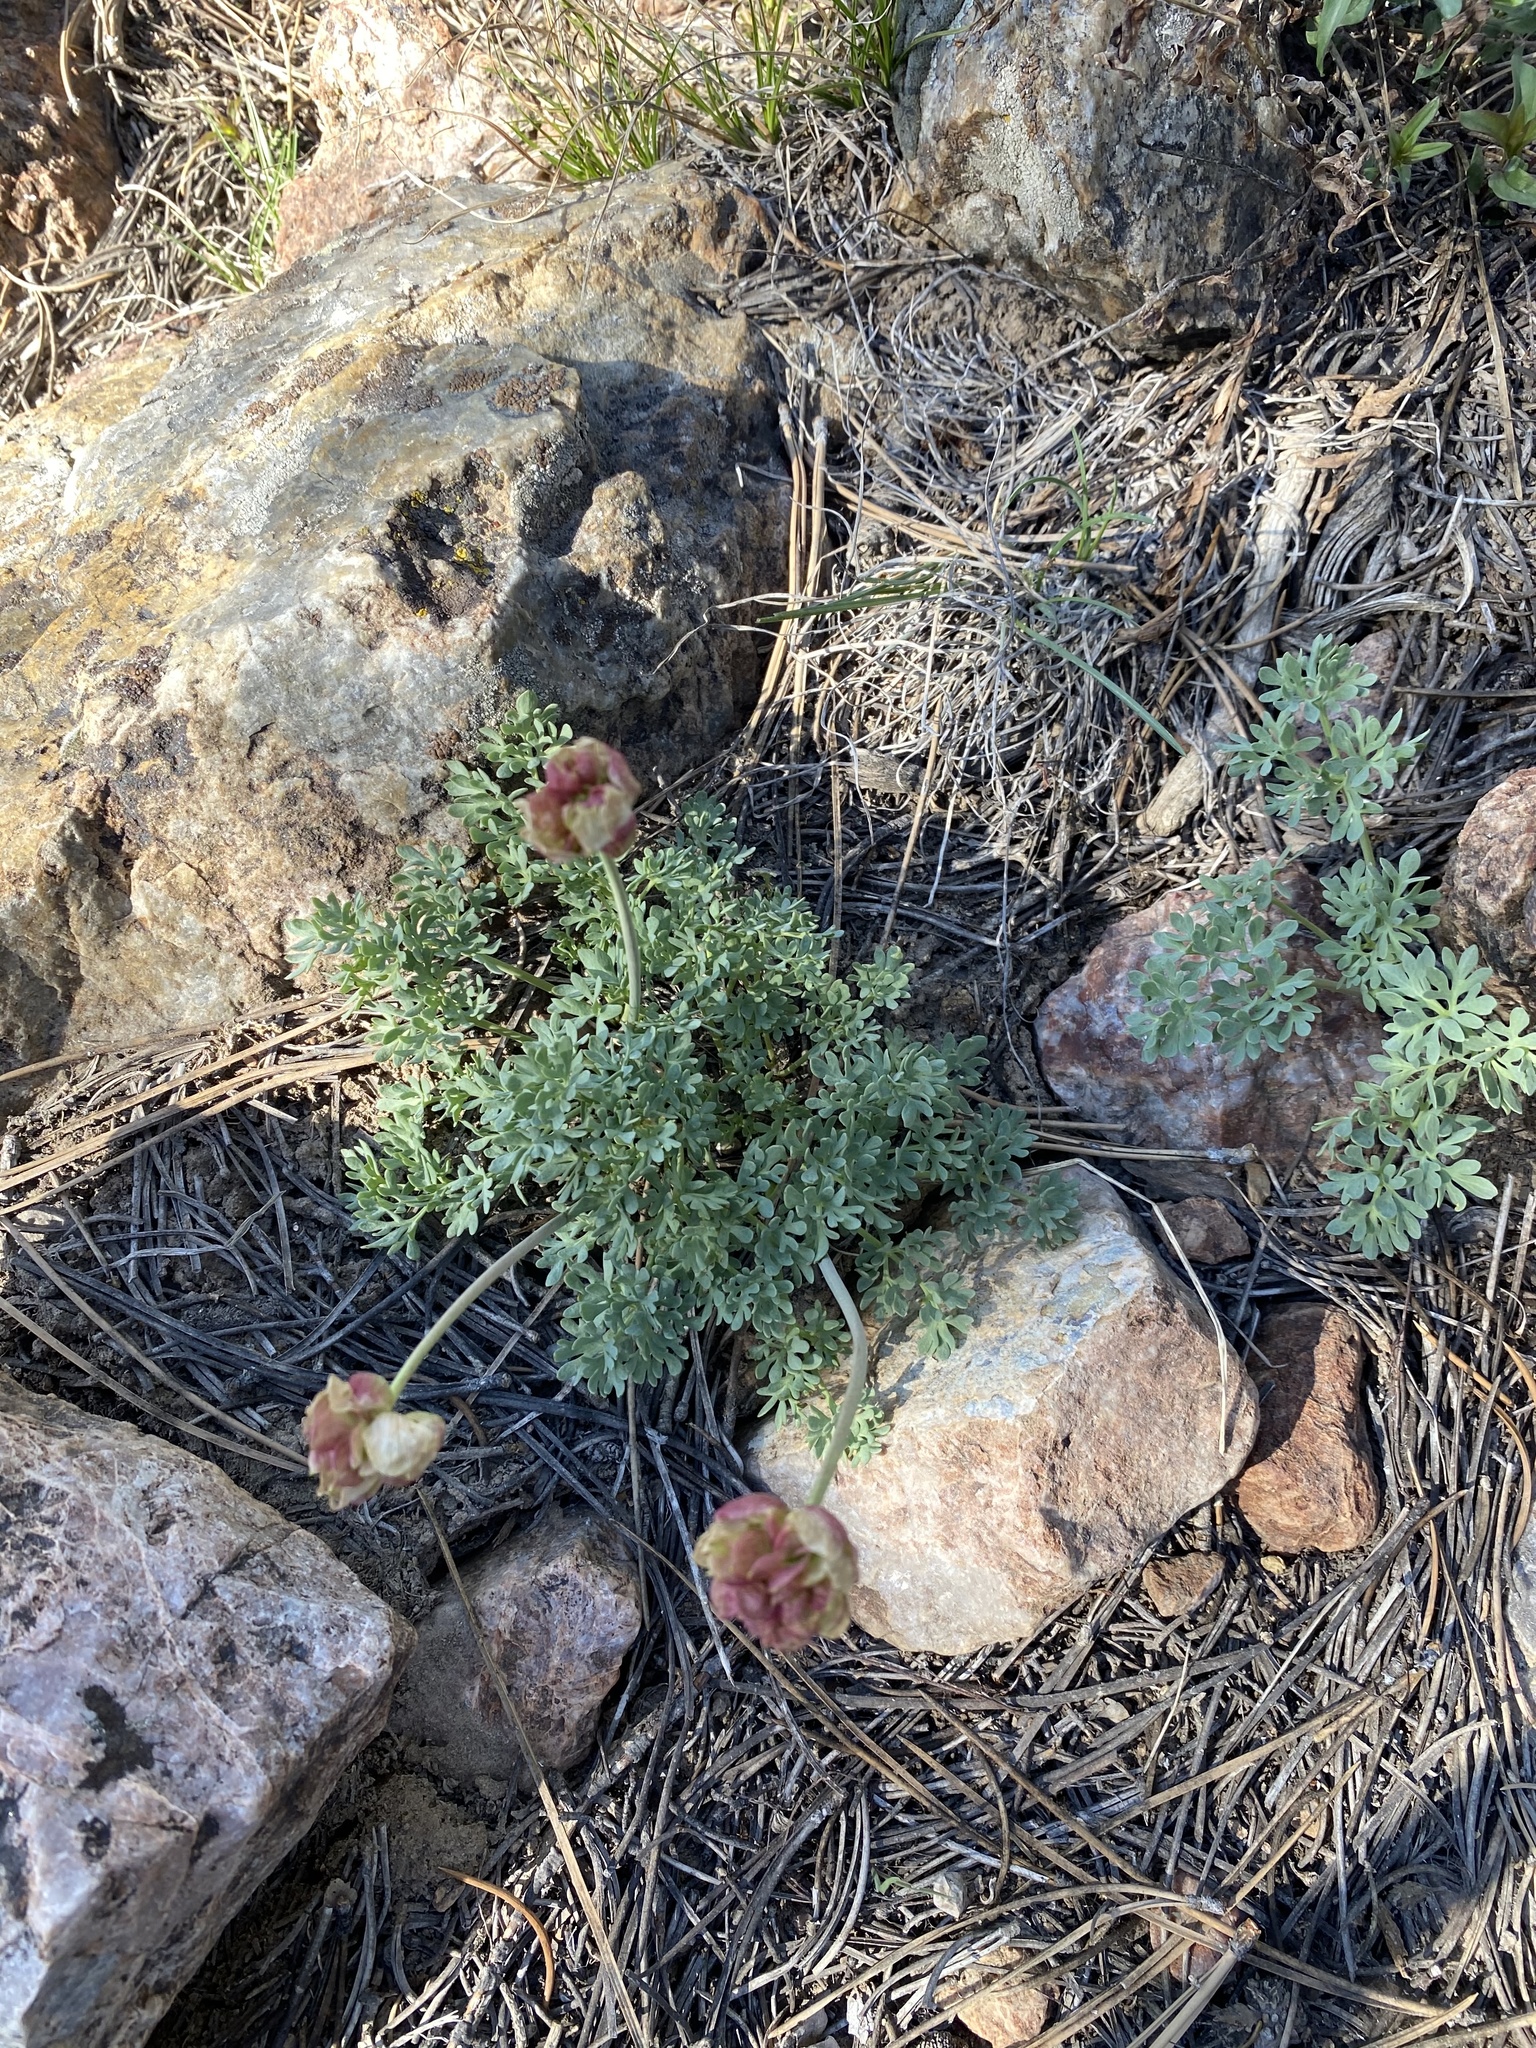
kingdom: Plantae
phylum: Tracheophyta
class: Magnoliopsida
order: Ranunculales
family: Ranunculaceae
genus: Beckwithia
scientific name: Beckwithia andersonii
